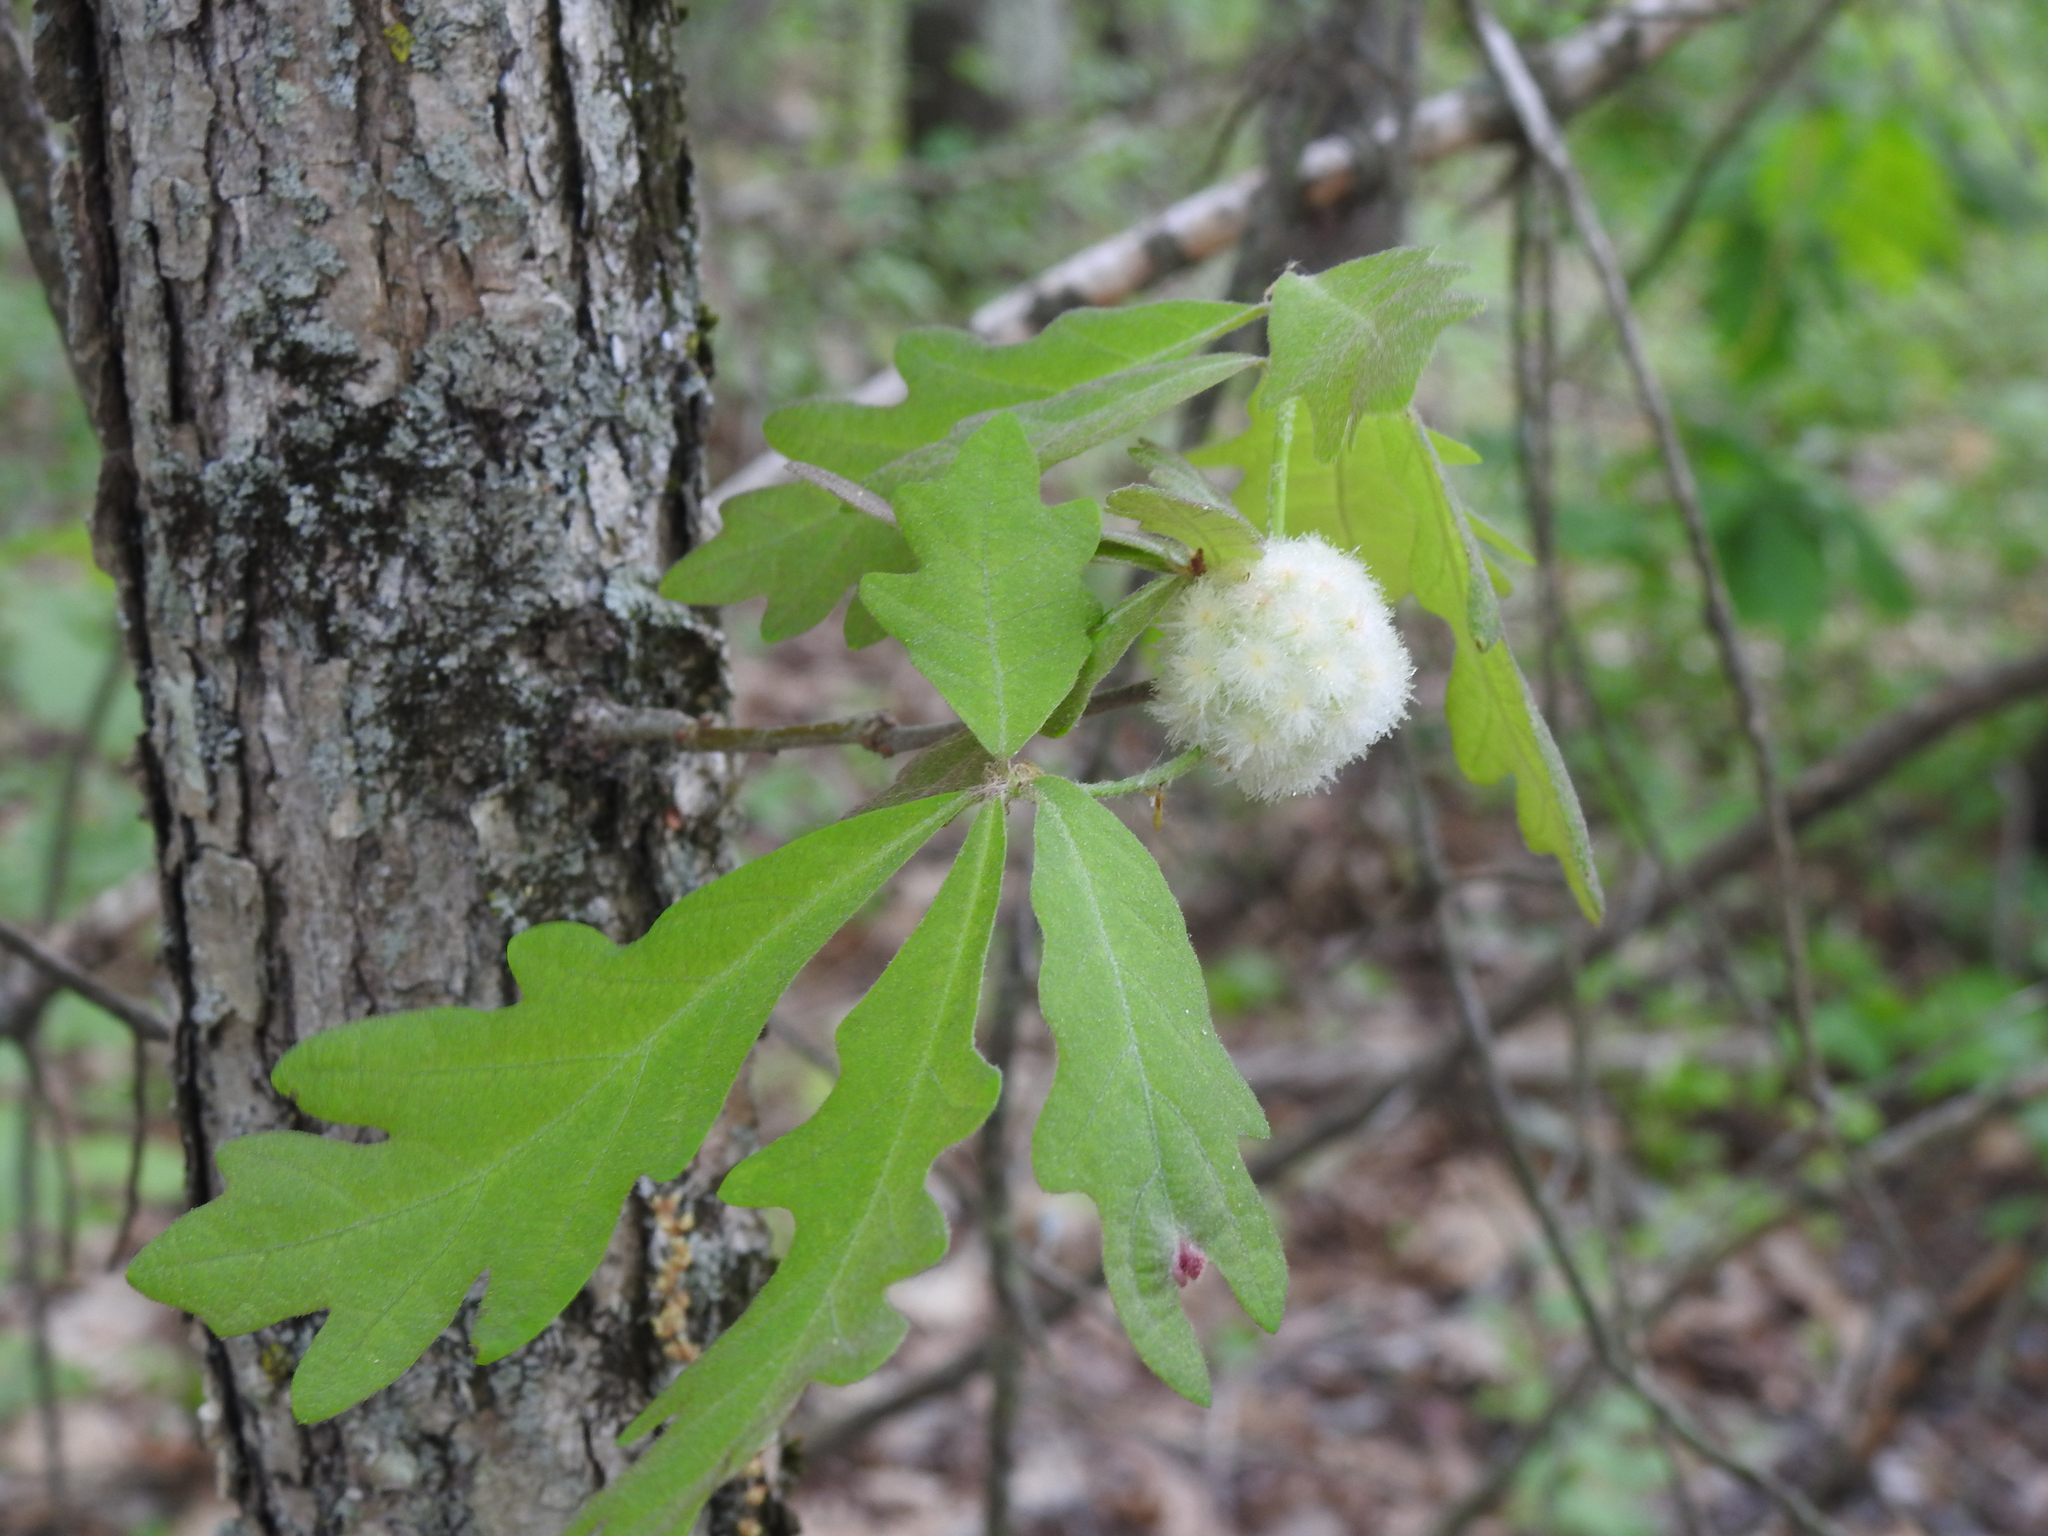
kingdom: Animalia
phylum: Arthropoda
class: Insecta
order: Hymenoptera
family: Cynipidae
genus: Callirhytis
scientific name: Callirhytis
